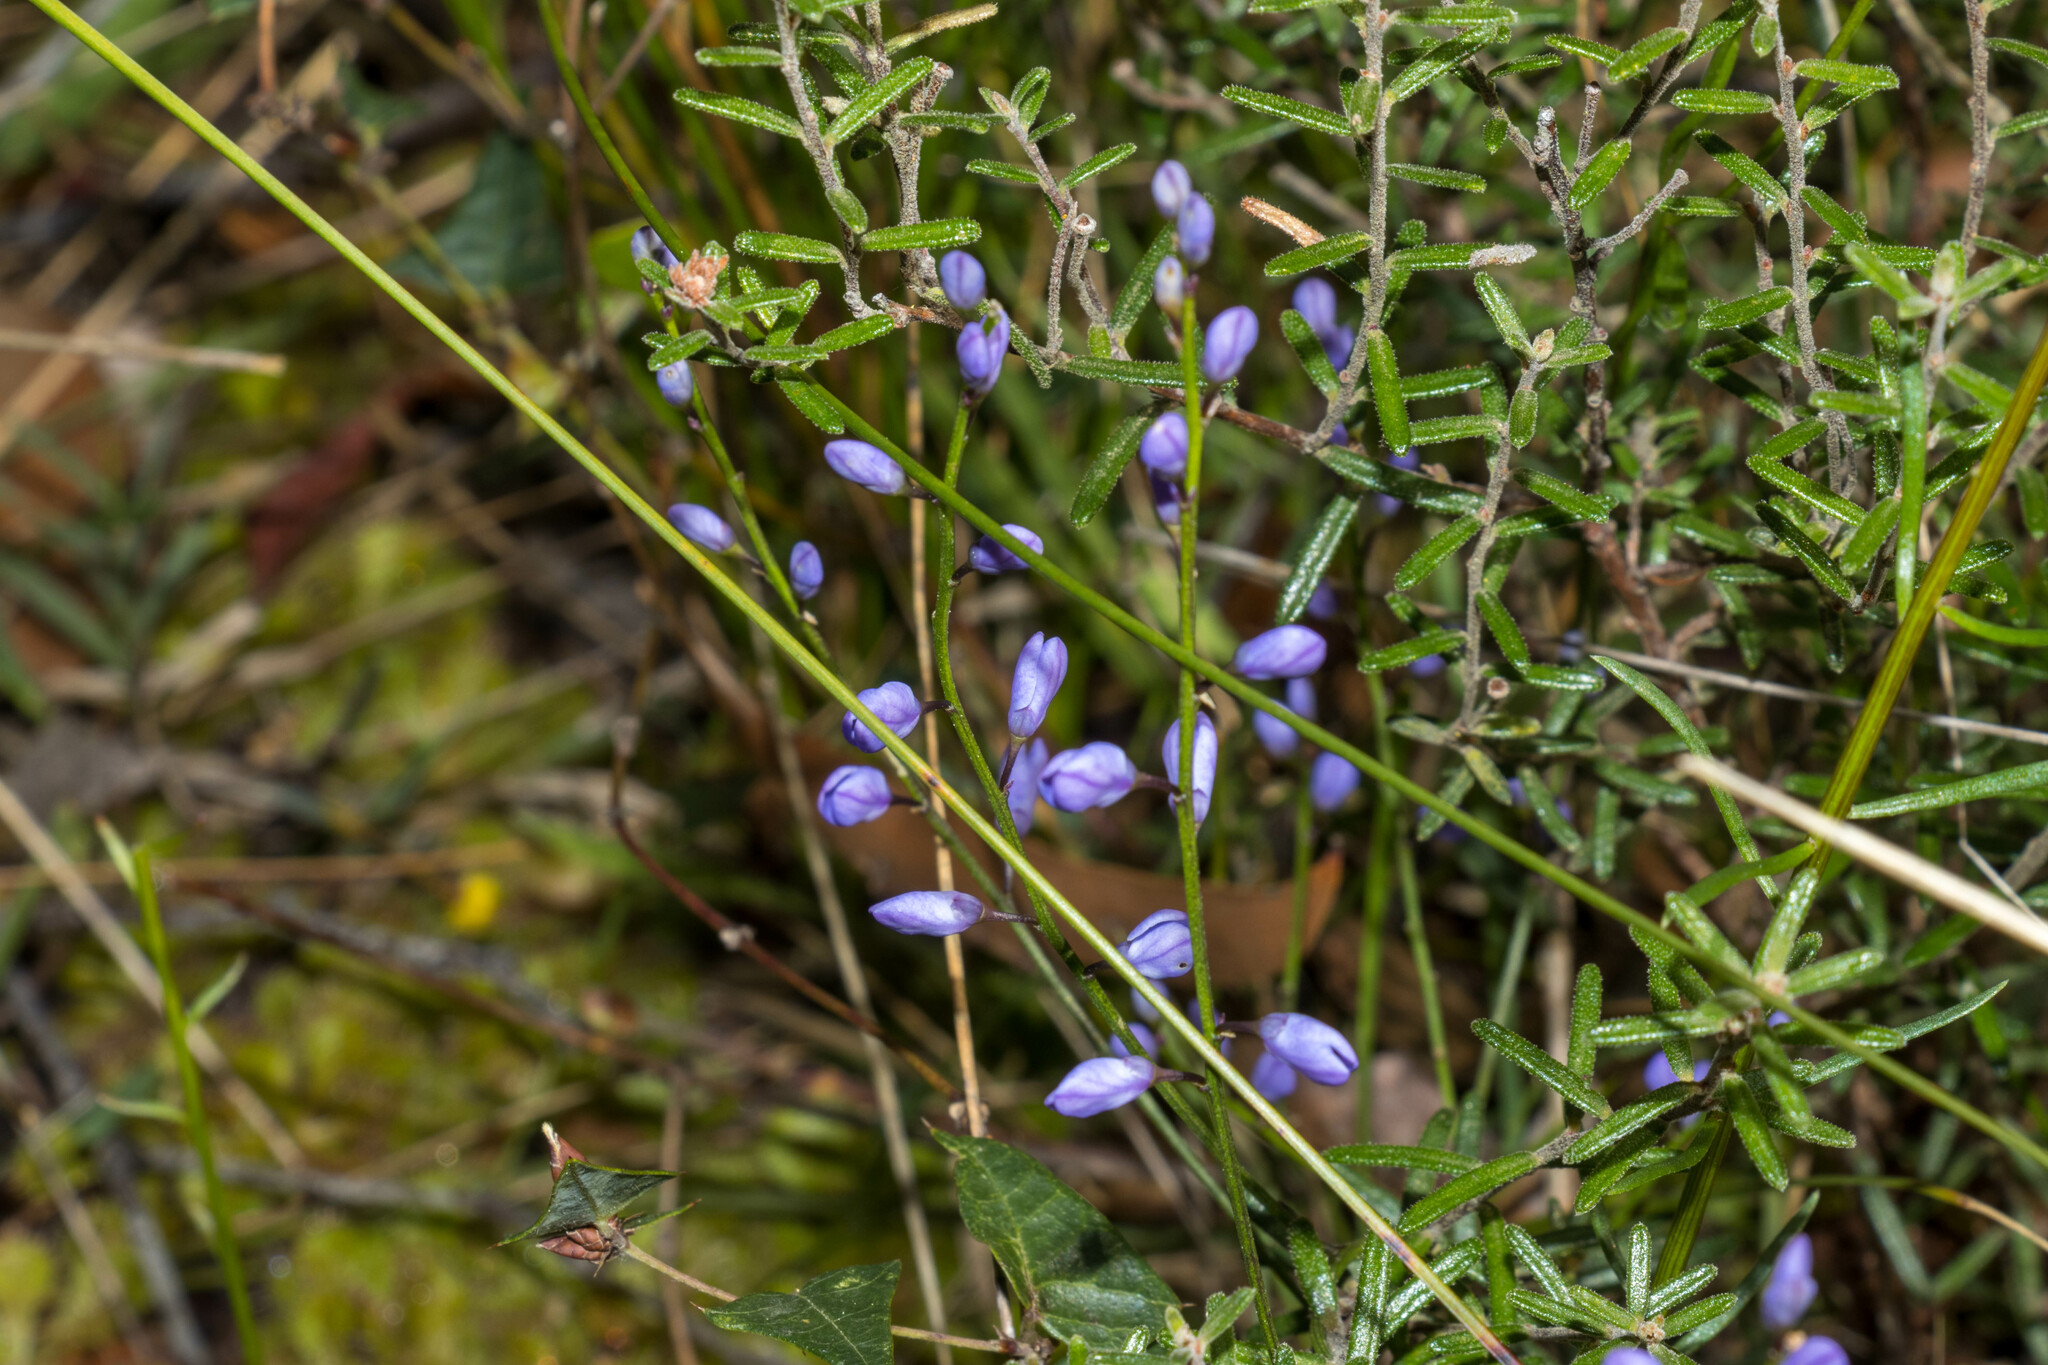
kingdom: Plantae
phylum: Tracheophyta
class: Magnoliopsida
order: Fabales
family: Polygalaceae
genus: Comesperma
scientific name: Comesperma volubile
